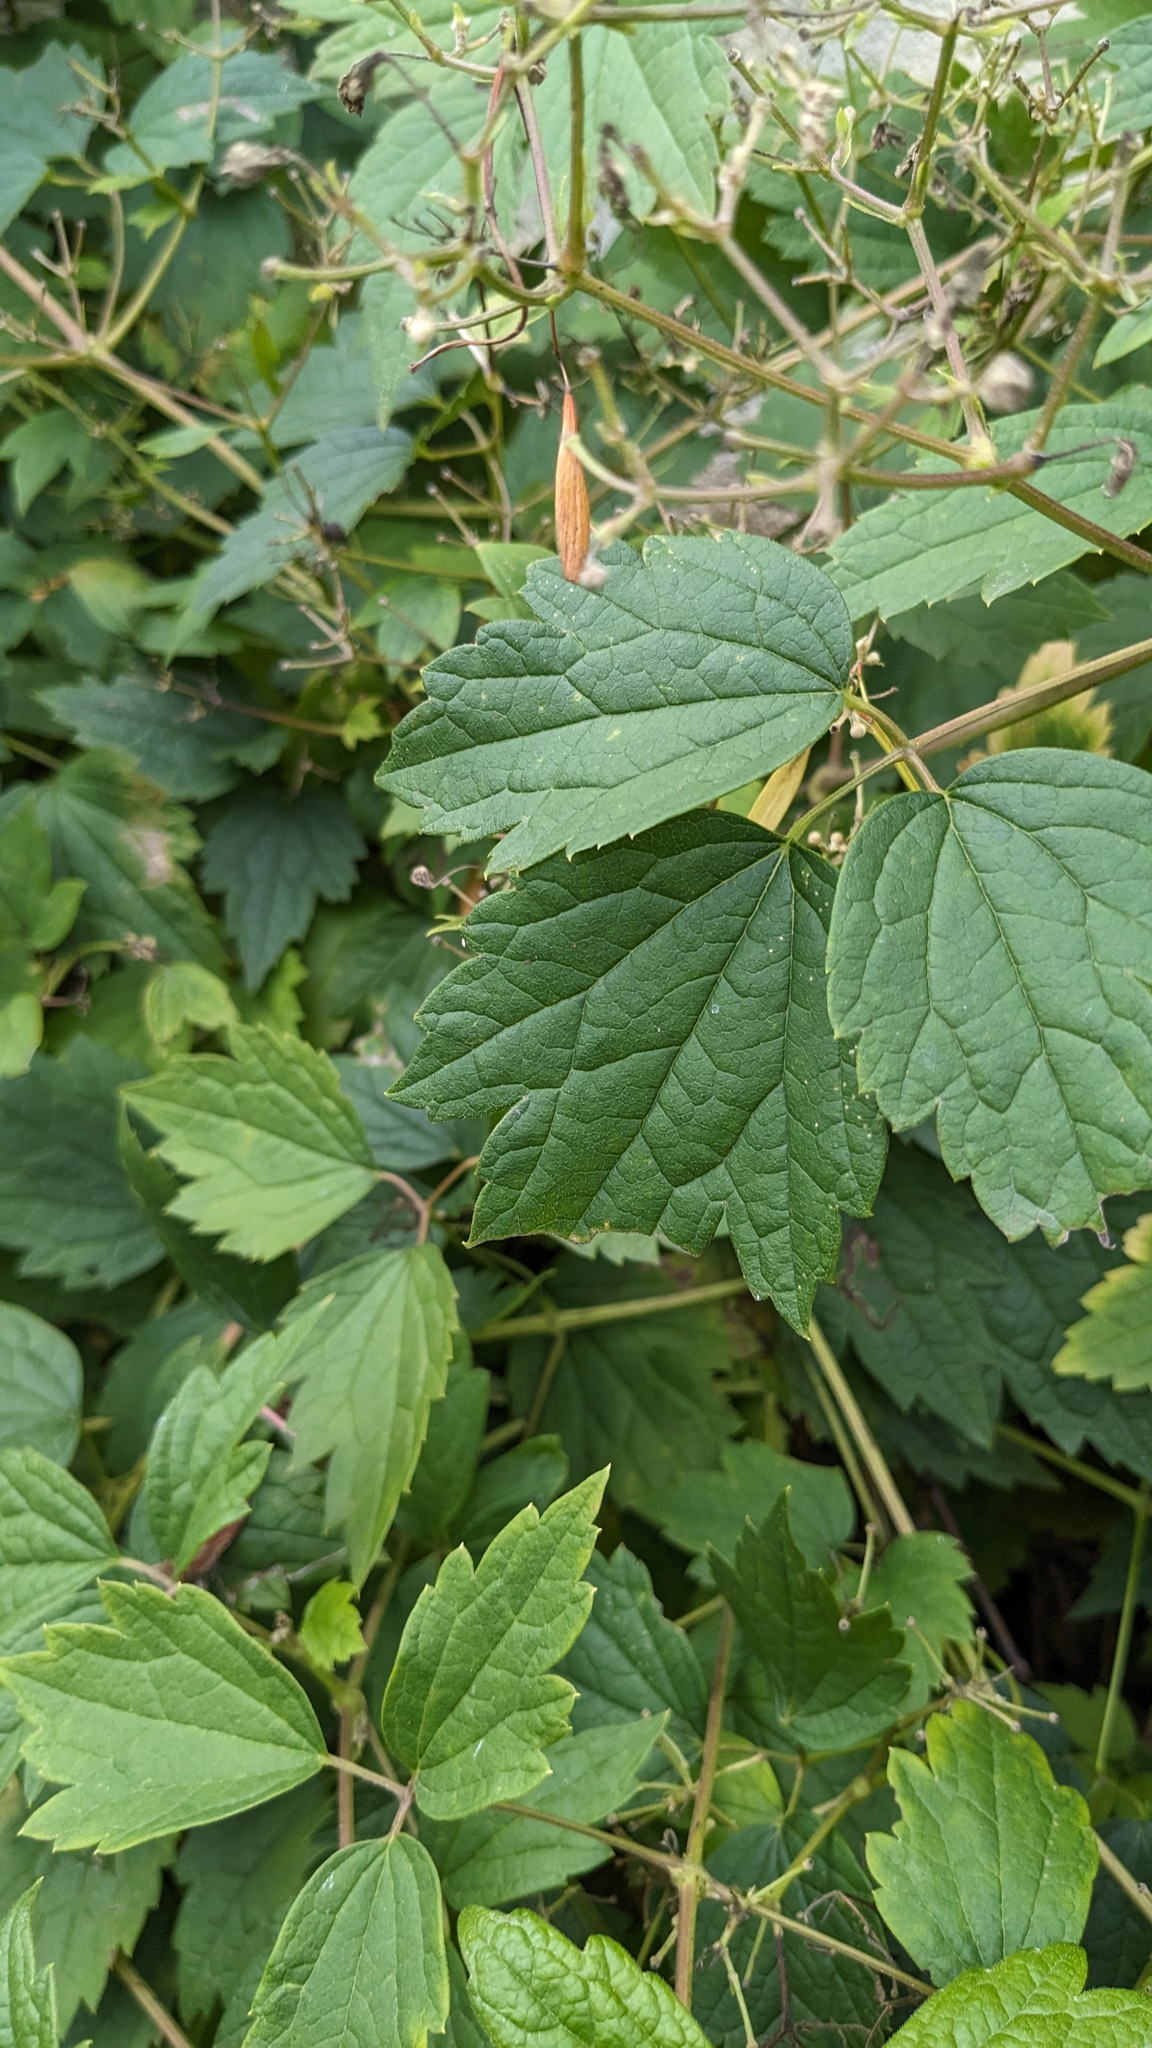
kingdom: Plantae
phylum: Tracheophyta
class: Magnoliopsida
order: Ranunculales
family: Ranunculaceae
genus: Clematis
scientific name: Clematis virginiana
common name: Virgin's-bower
